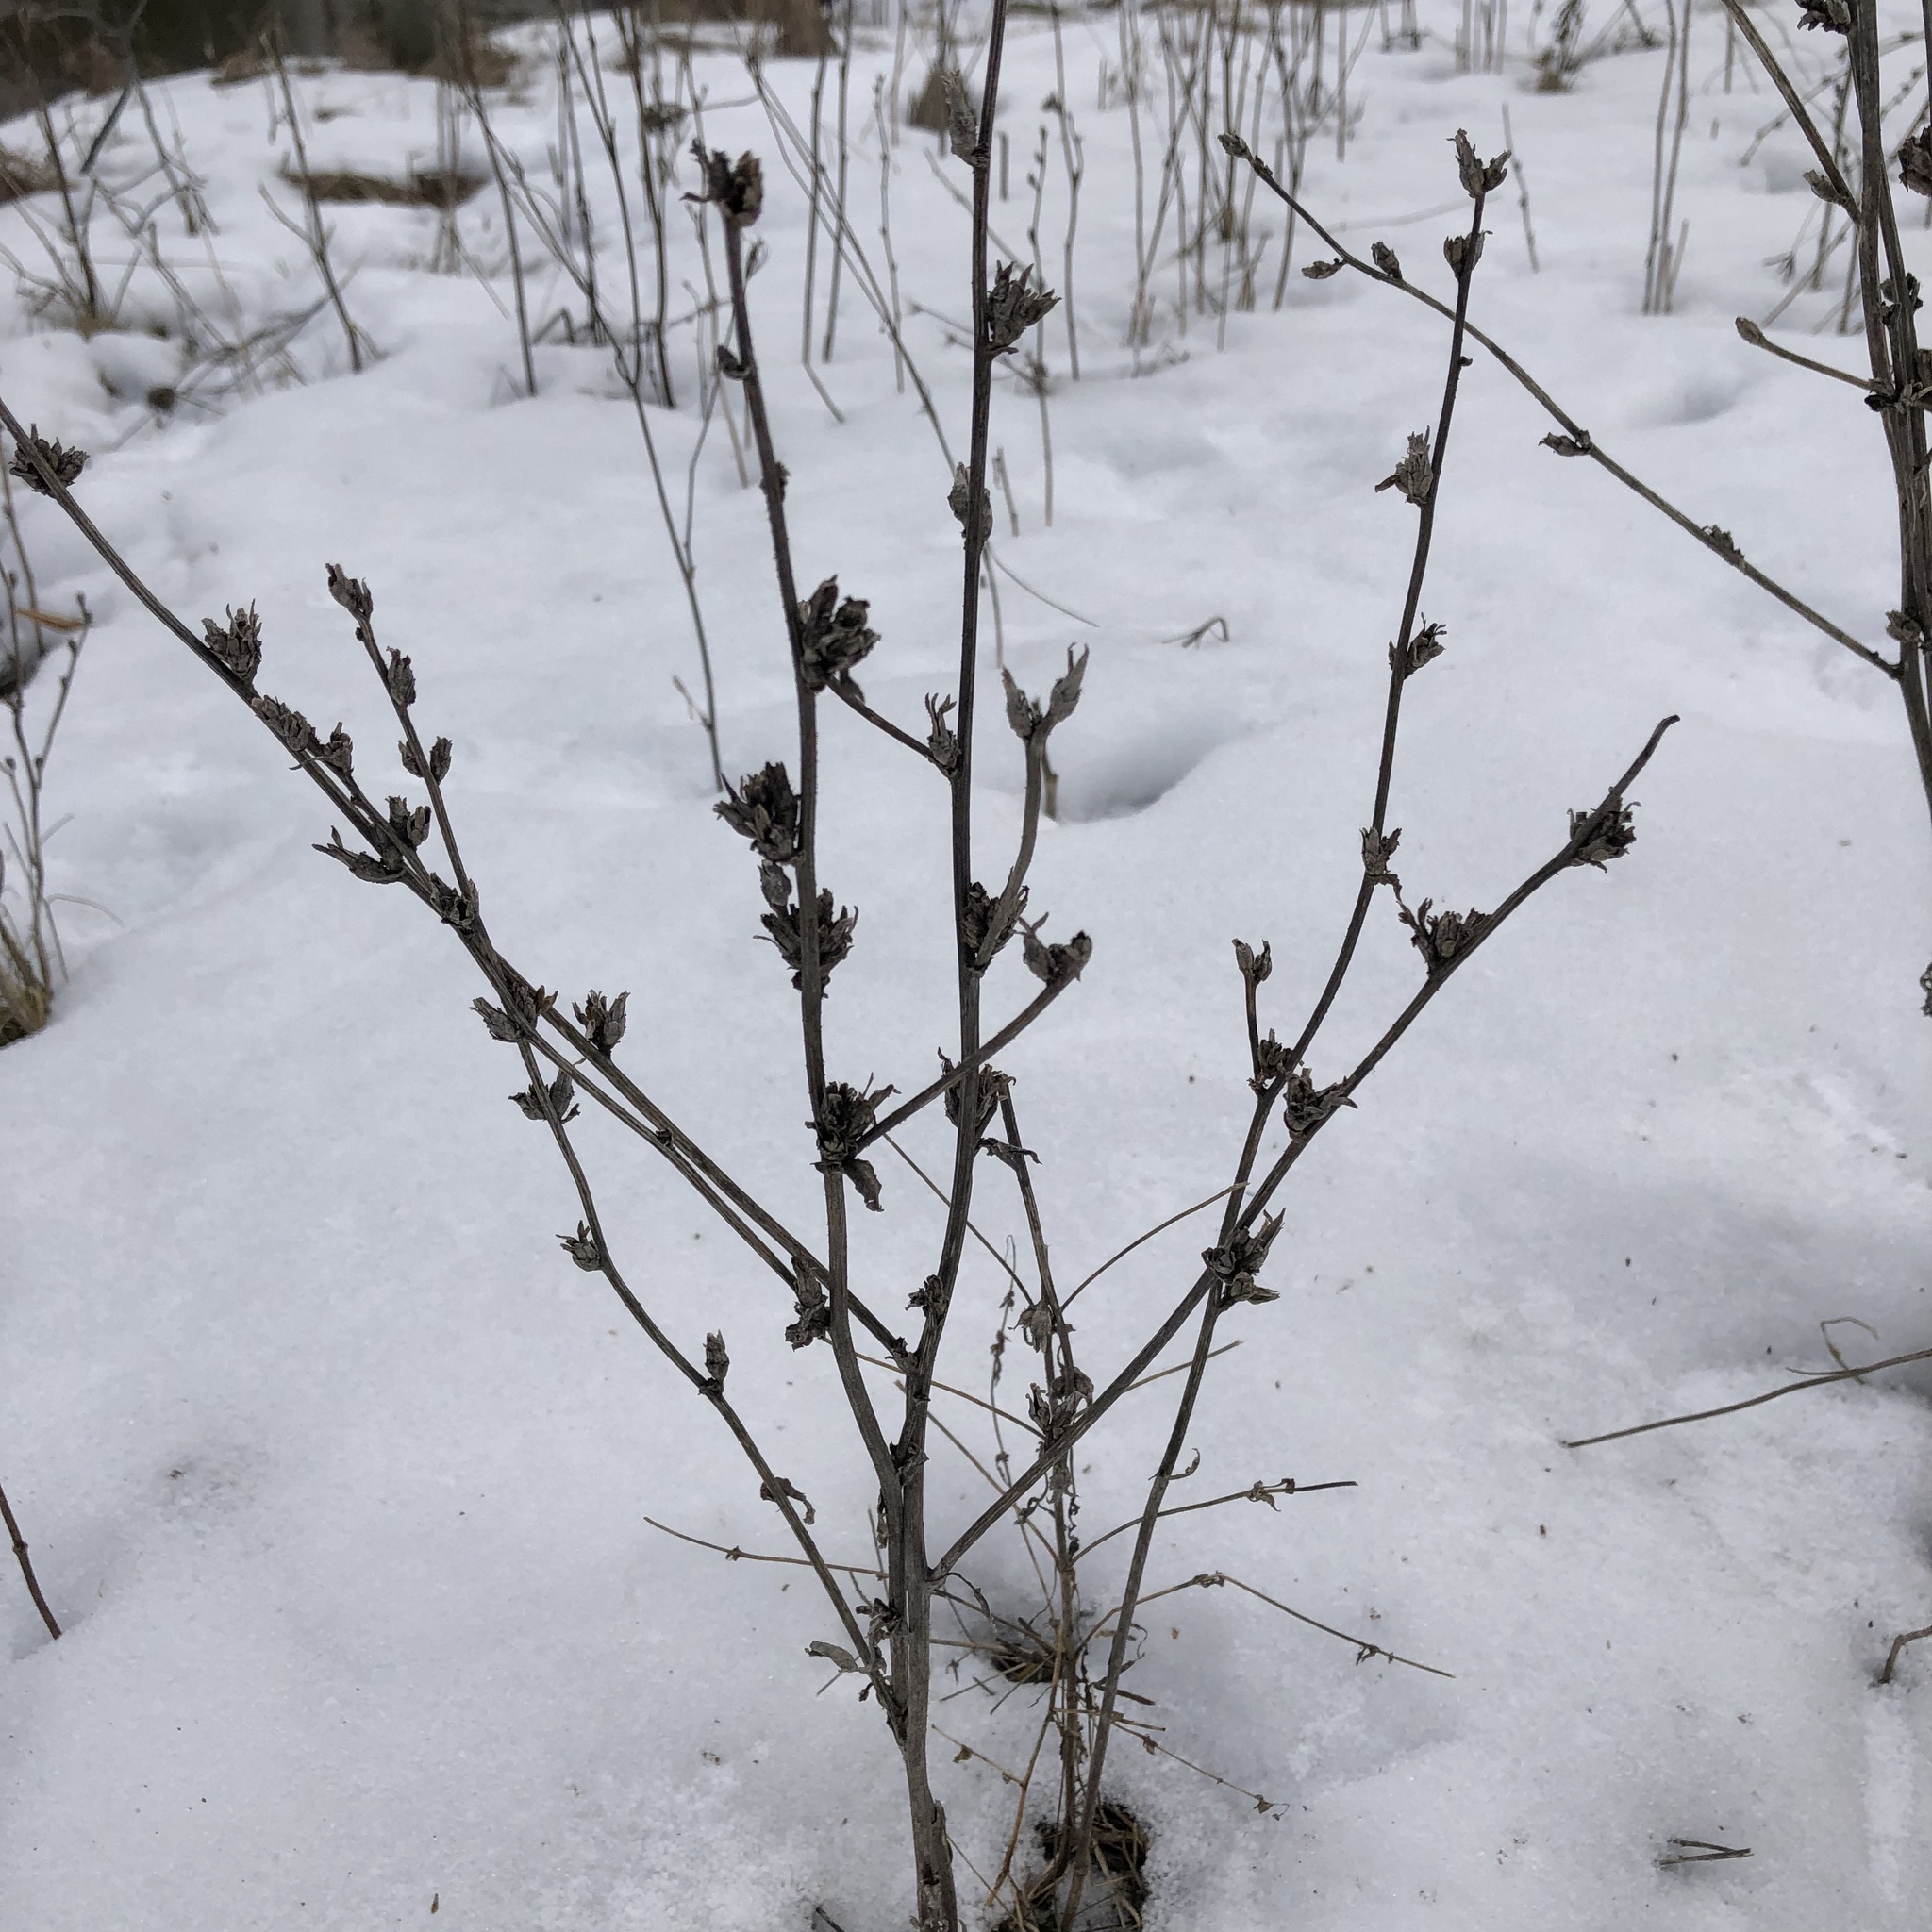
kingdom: Plantae
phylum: Tracheophyta
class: Magnoliopsida
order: Asterales
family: Asteraceae
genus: Cichorium
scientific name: Cichorium intybus
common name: Chicory
